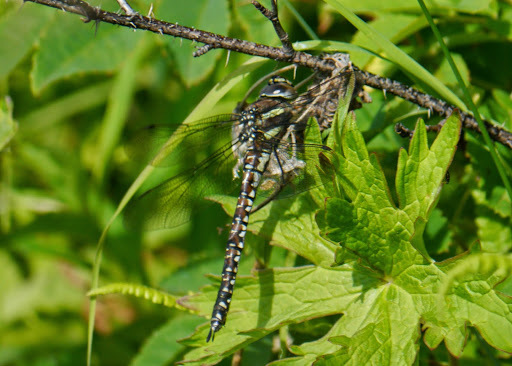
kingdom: Animalia
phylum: Arthropoda
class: Insecta
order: Odonata
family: Aeshnidae
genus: Aeshna
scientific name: Aeshna juncea
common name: Moorland hawker
